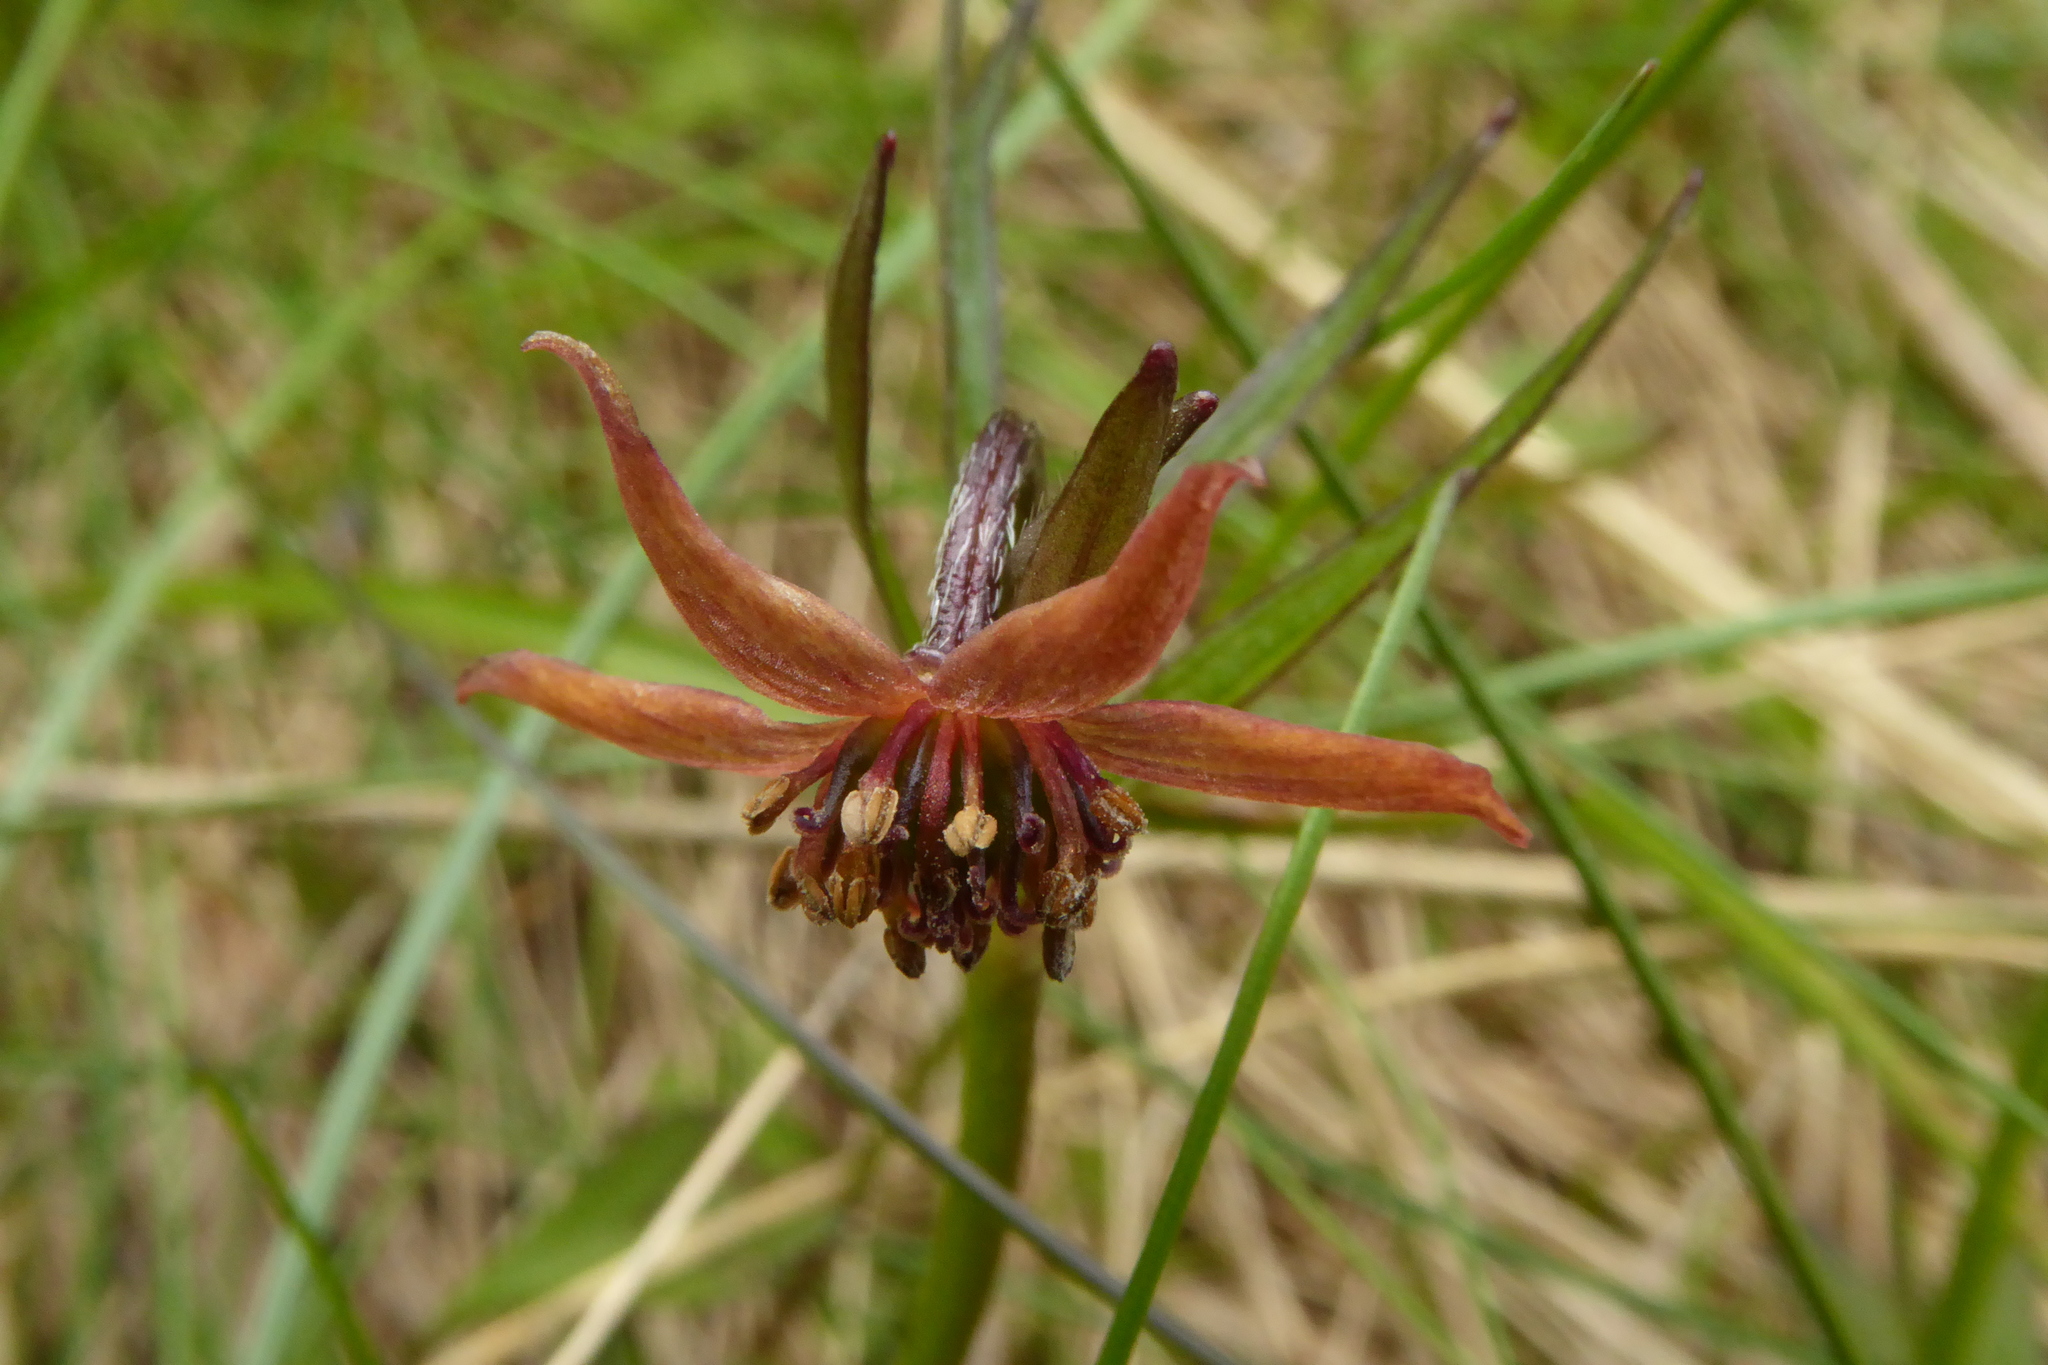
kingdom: Plantae
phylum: Tracheophyta
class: Magnoliopsida
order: Ranunculales
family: Ranunculaceae
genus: Anemonastrum
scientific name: Anemonastrum tenuicaule
